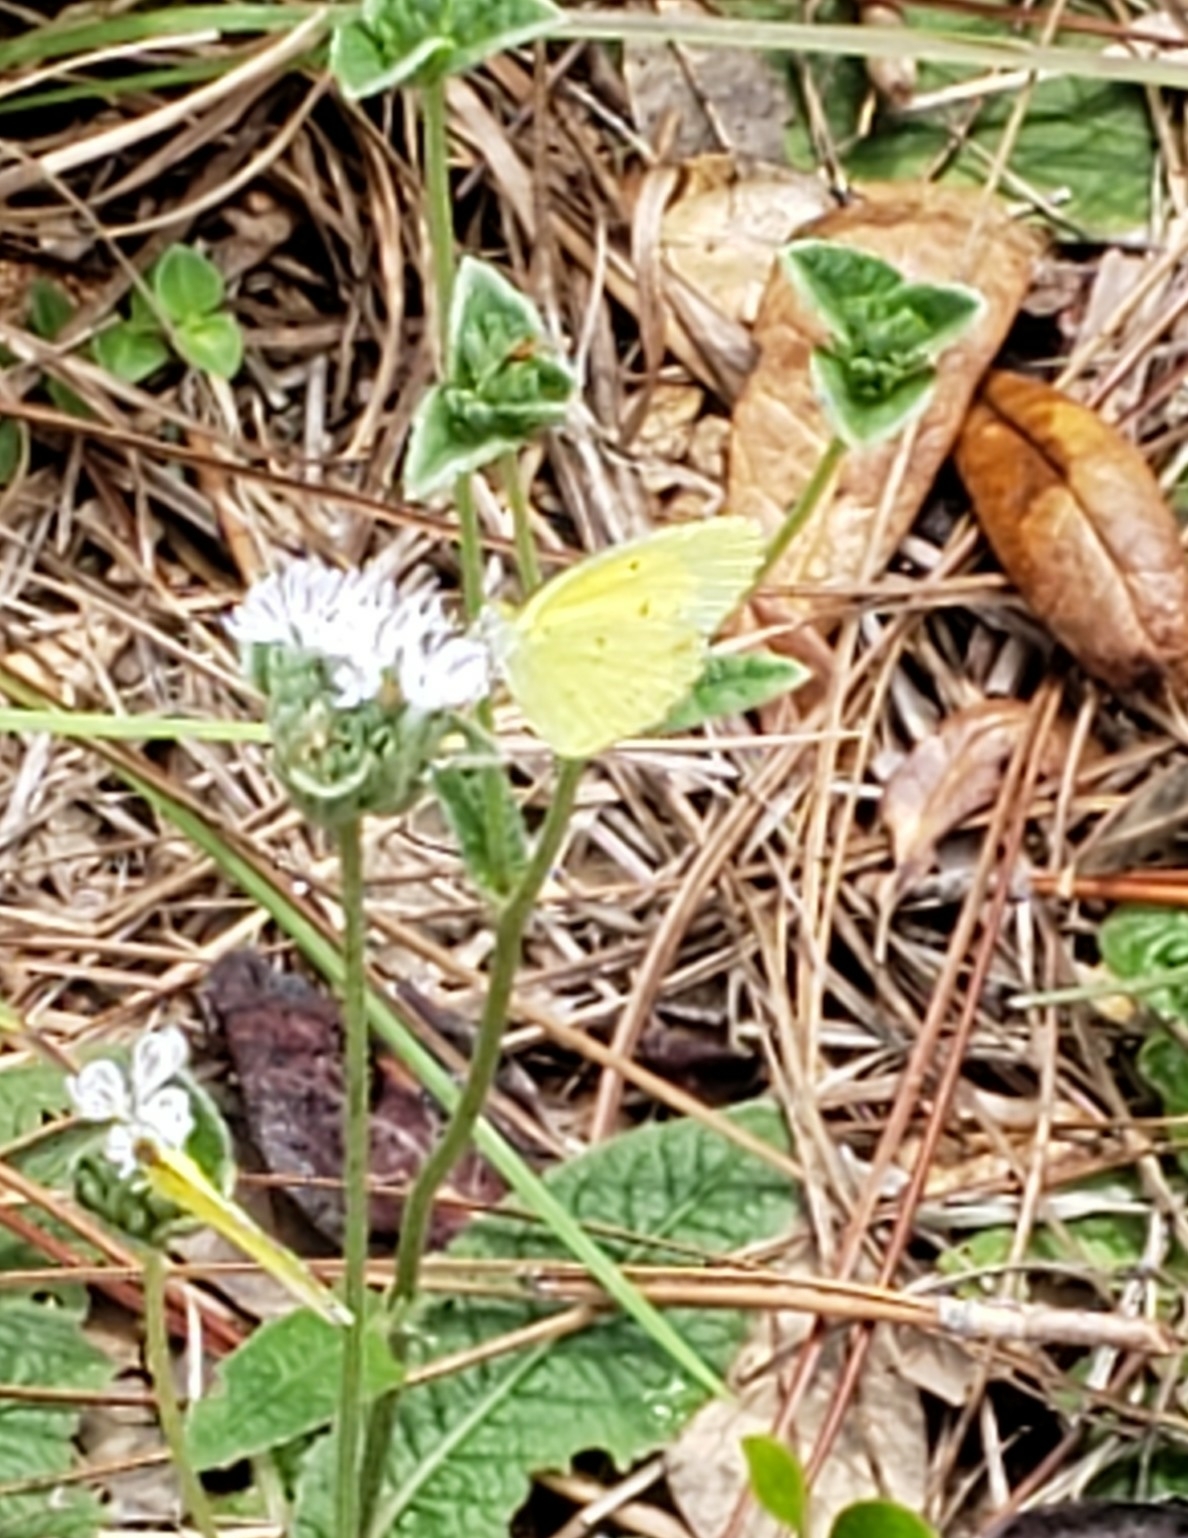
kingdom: Animalia
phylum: Arthropoda
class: Insecta
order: Lepidoptera
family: Pieridae
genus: Pyrisitia
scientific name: Pyrisitia lisa
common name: Little yellow
